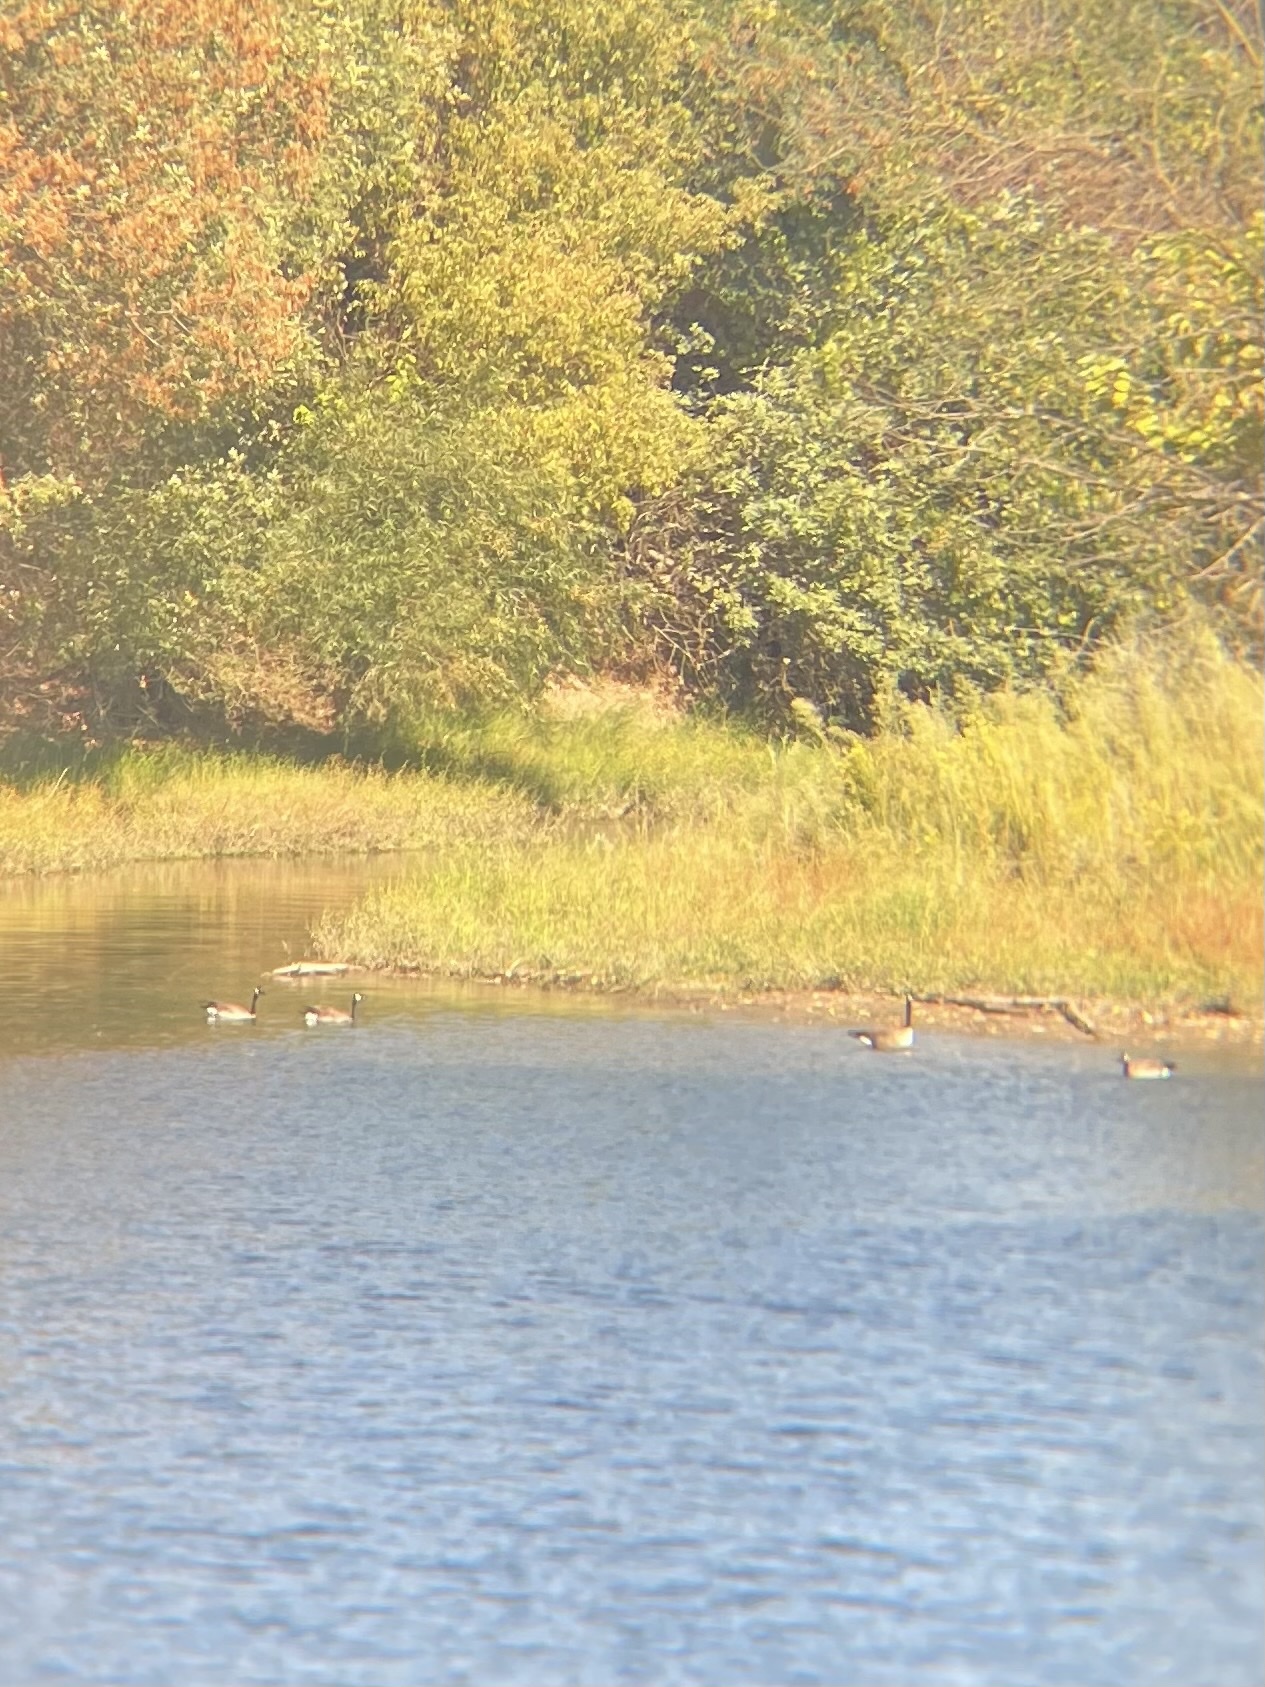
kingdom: Animalia
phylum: Chordata
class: Aves
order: Anseriformes
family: Anatidae
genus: Branta
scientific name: Branta canadensis
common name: Canada goose
